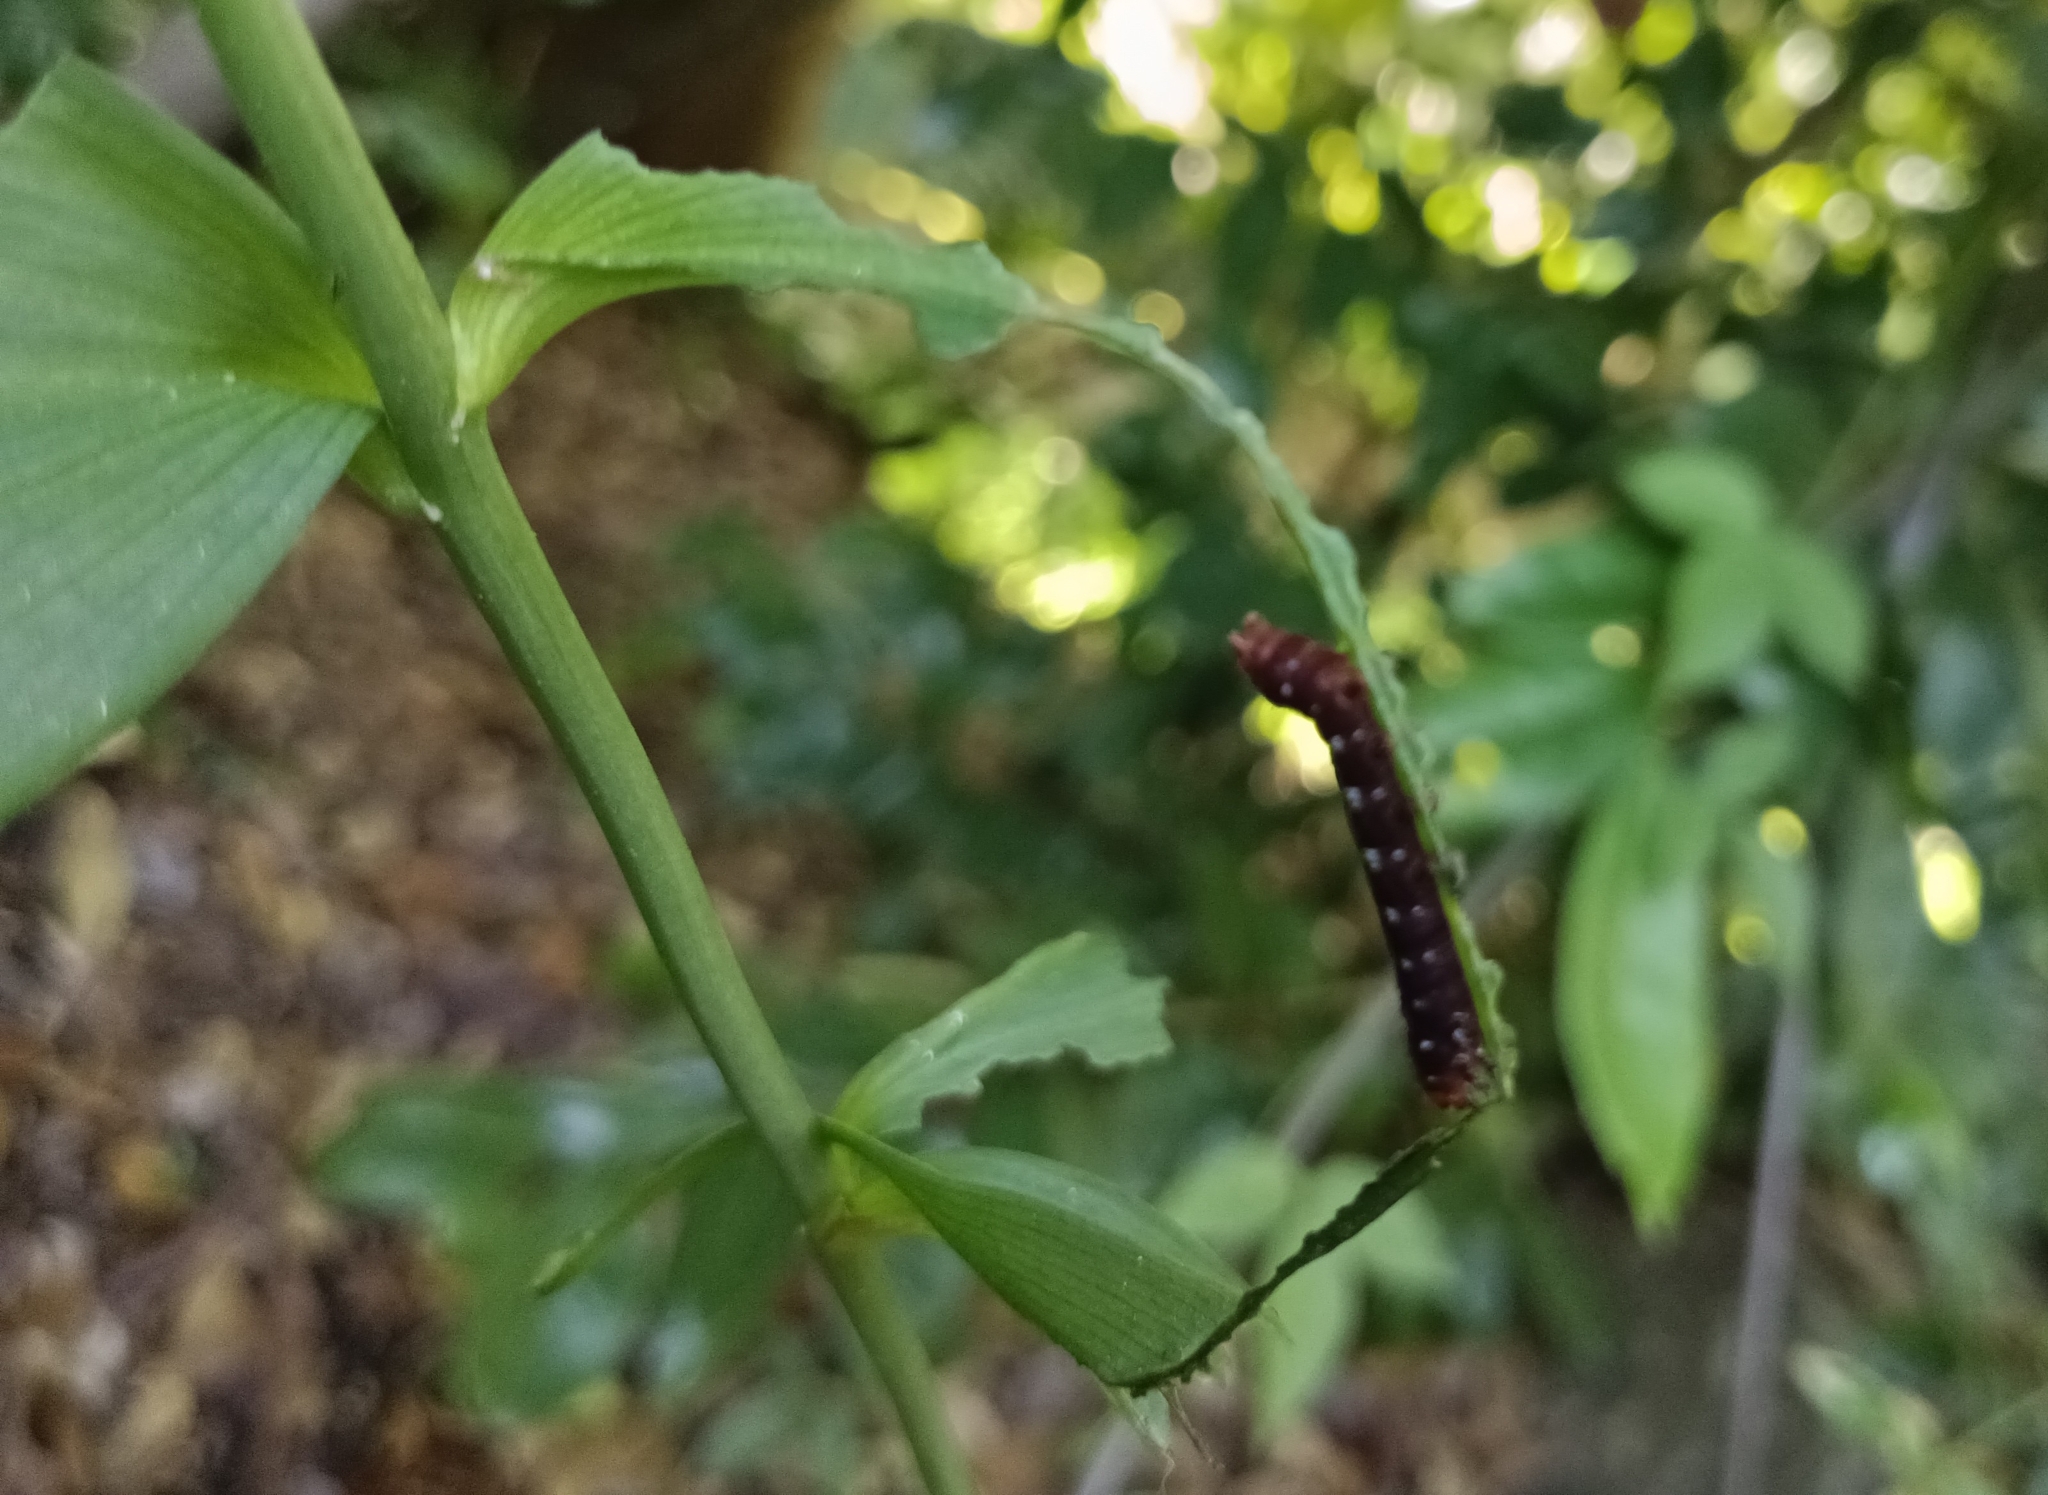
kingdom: Animalia
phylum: Arthropoda
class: Insecta
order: Lepidoptera
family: Noctuidae
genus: Polytela
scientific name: Polytela gloriosae
